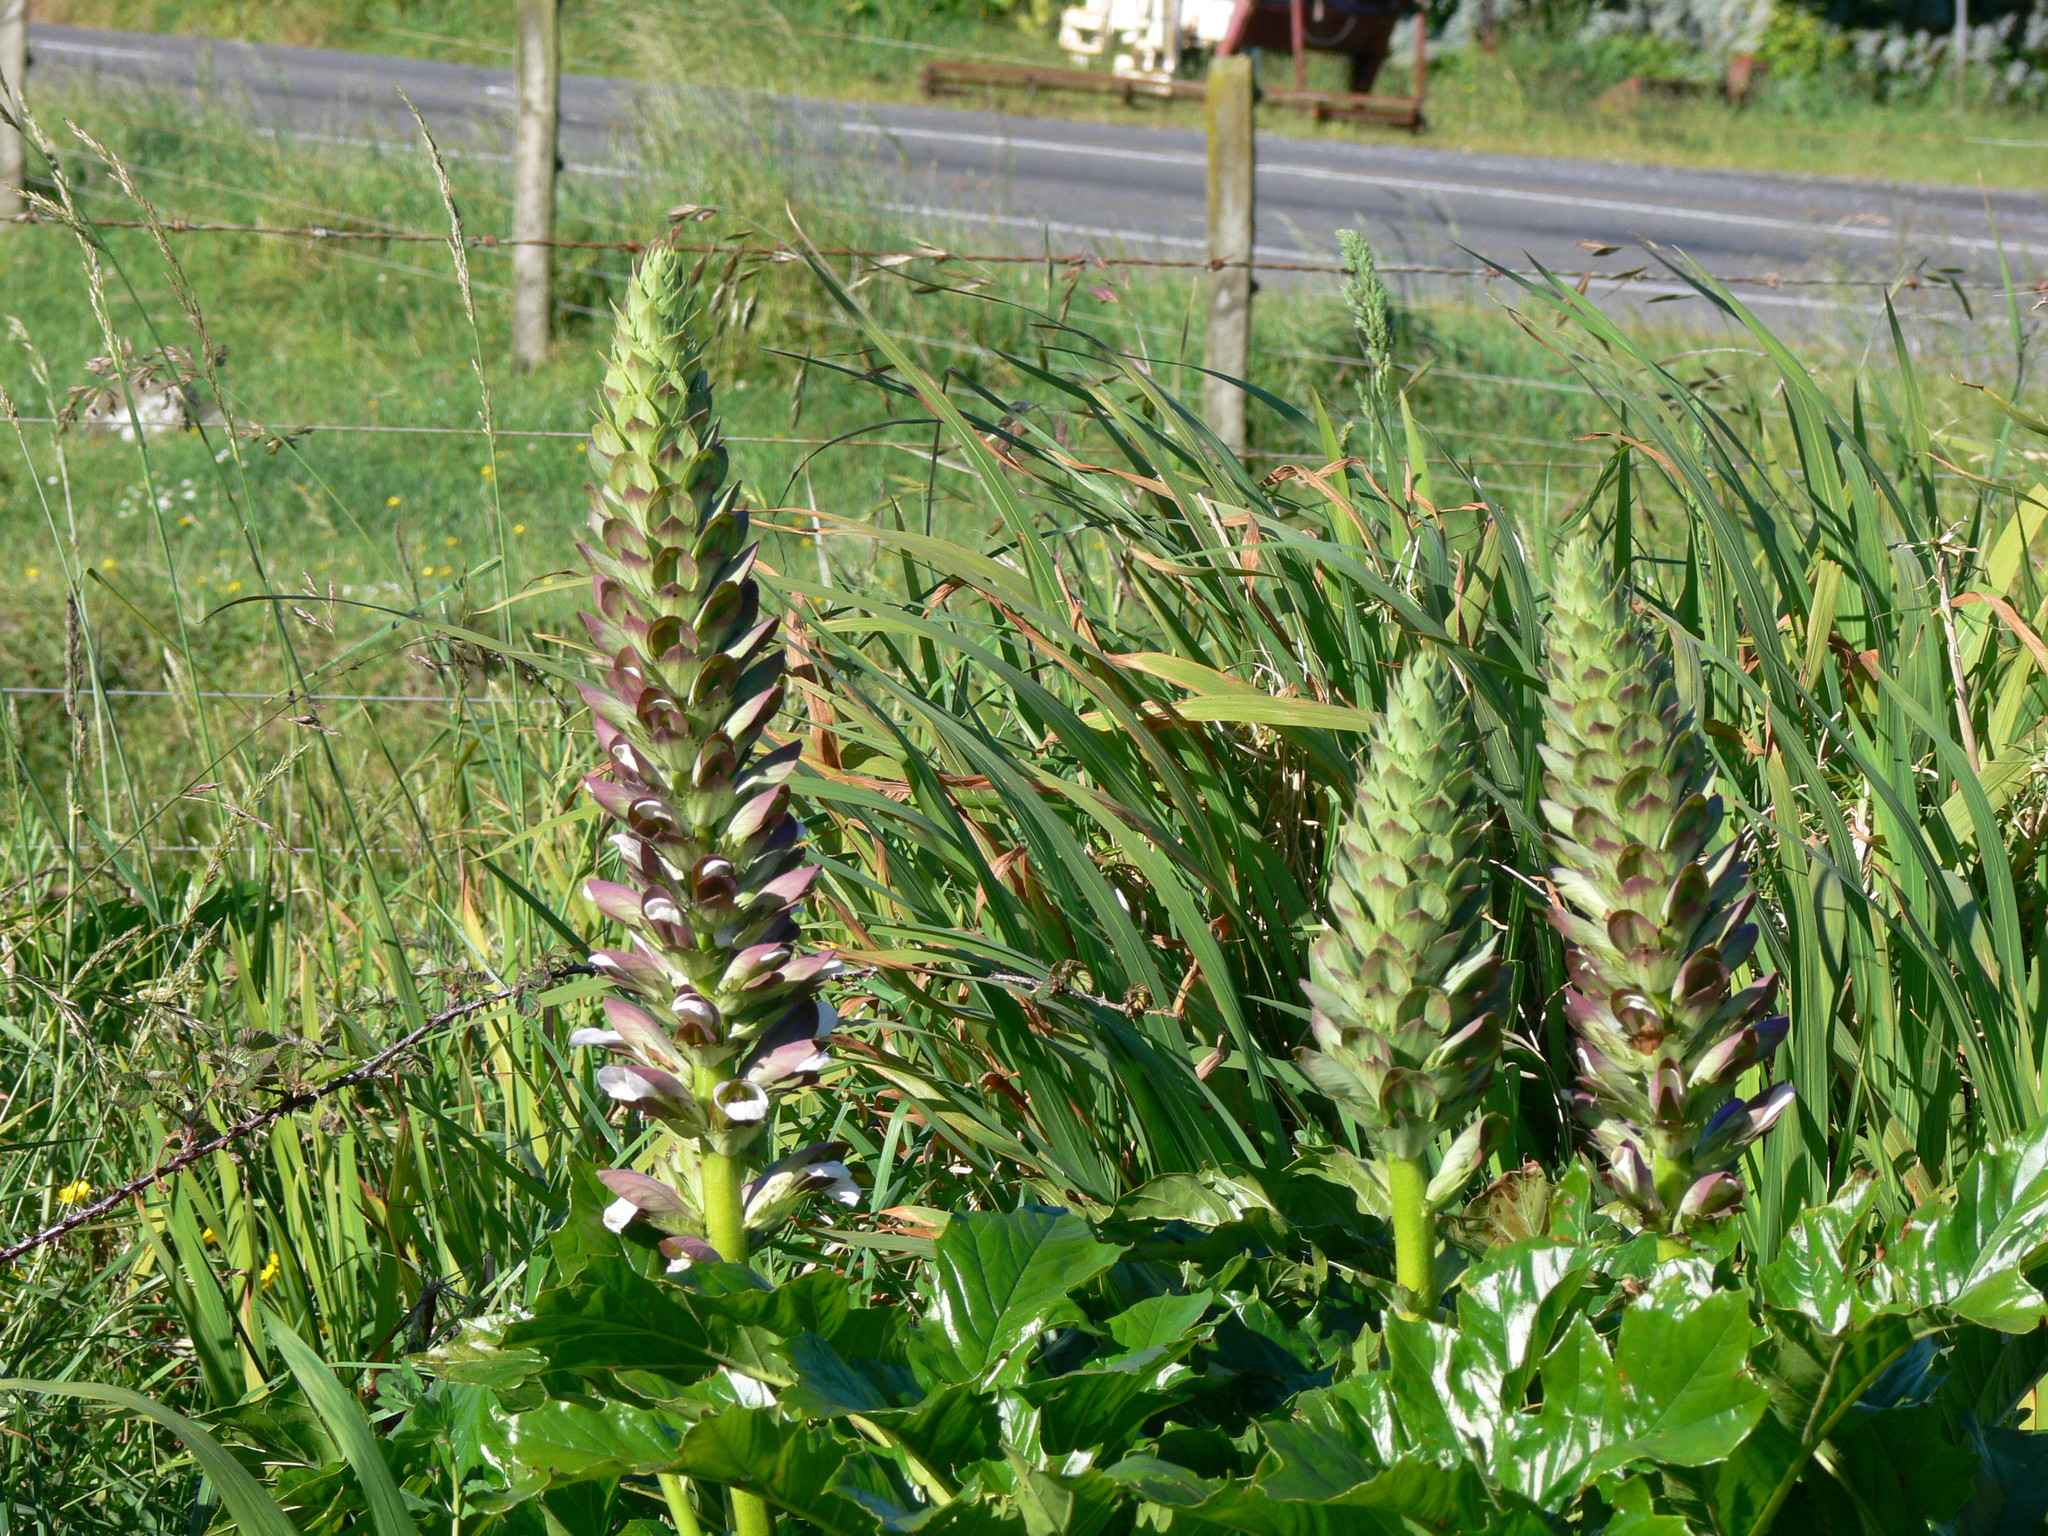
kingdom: Plantae
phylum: Tracheophyta
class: Magnoliopsida
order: Lamiales
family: Acanthaceae
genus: Acanthus
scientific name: Acanthus mollis
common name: Bear's-breech
